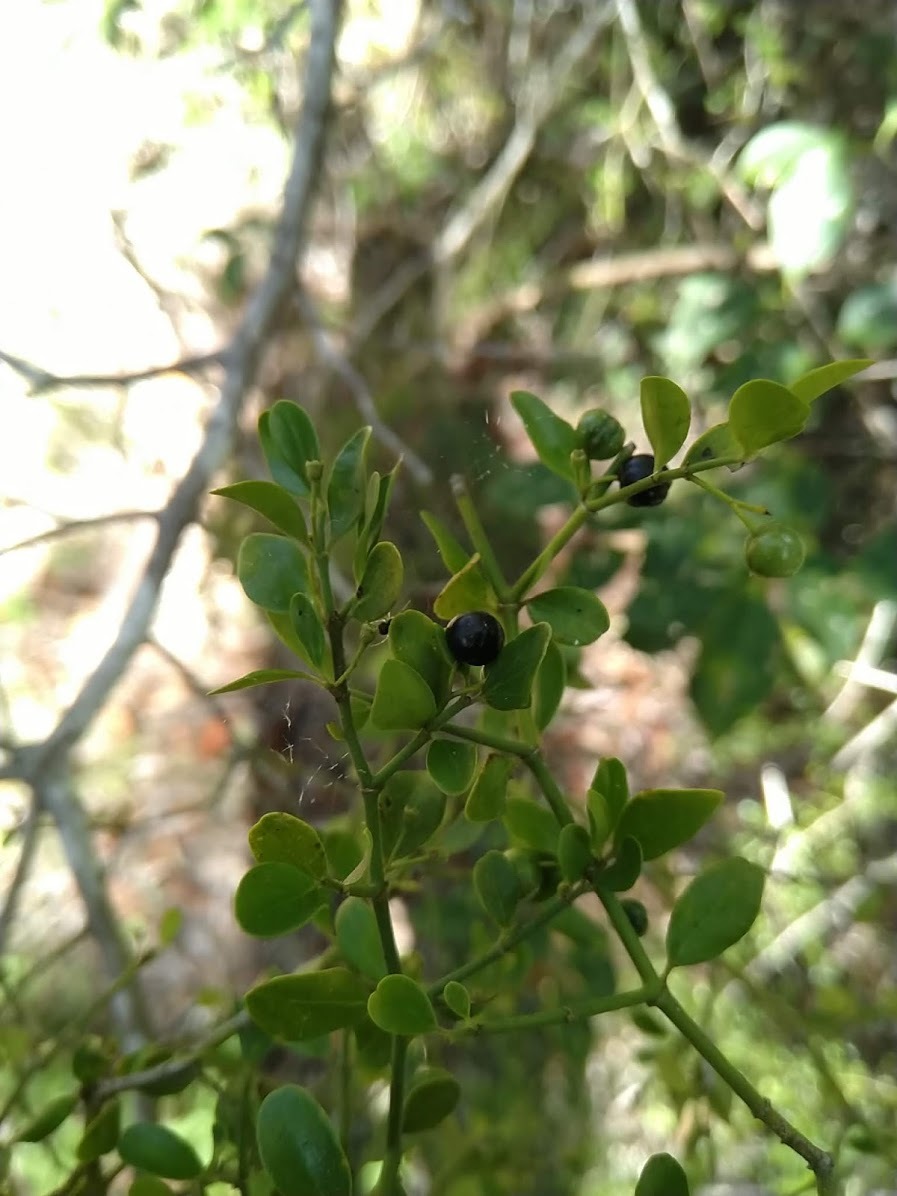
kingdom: Plantae
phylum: Tracheophyta
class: Magnoliopsida
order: Gentianales
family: Rubiaceae
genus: Everistia
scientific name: Everistia vacciniifolia
